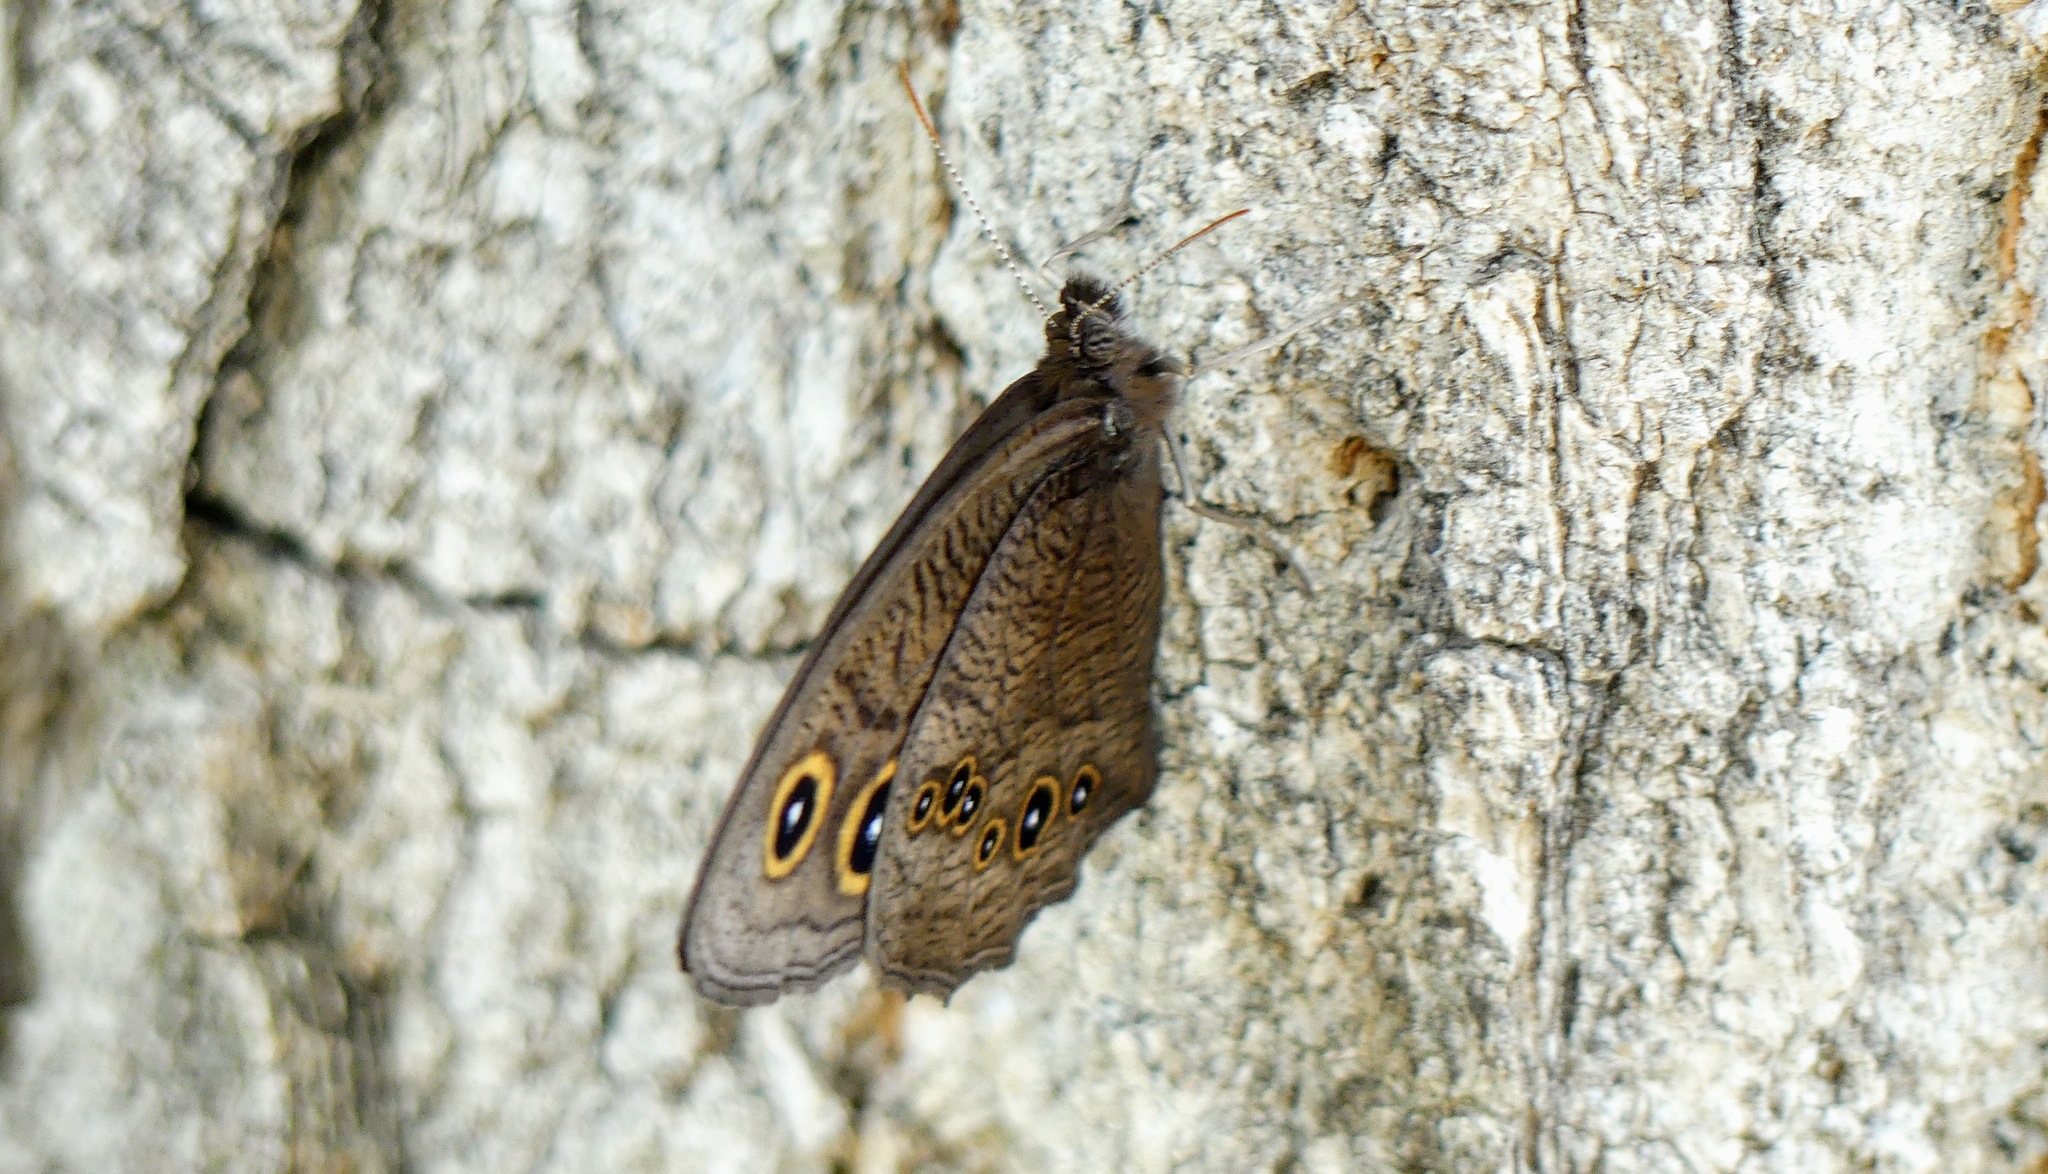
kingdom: Animalia
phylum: Arthropoda
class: Insecta
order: Lepidoptera
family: Nymphalidae
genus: Cercyonis
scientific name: Cercyonis pegala
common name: Common wood-nymph
